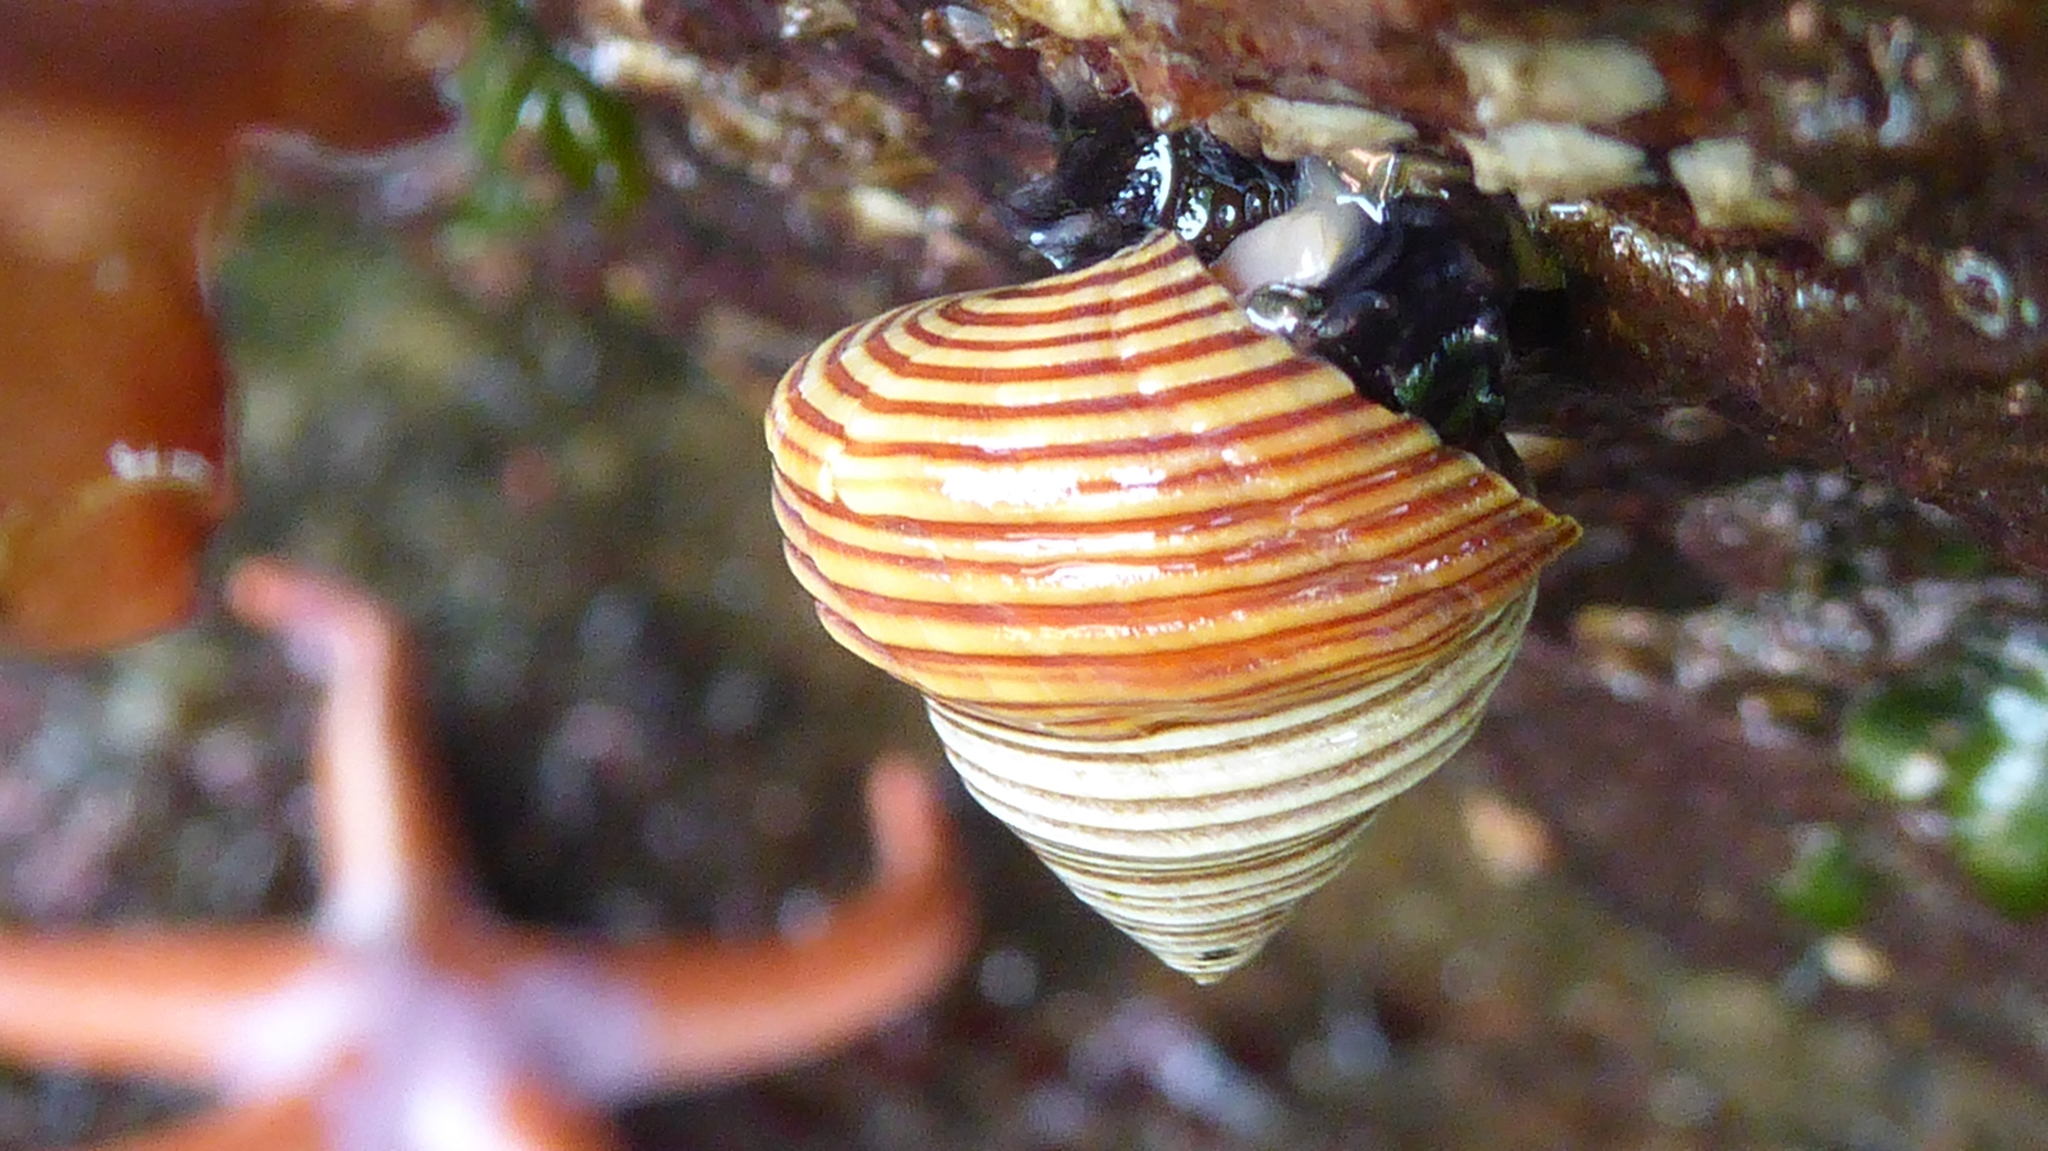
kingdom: Animalia
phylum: Mollusca
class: Gastropoda
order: Trochida
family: Calliostomatidae
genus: Calliostoma
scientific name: Calliostoma ligatum
